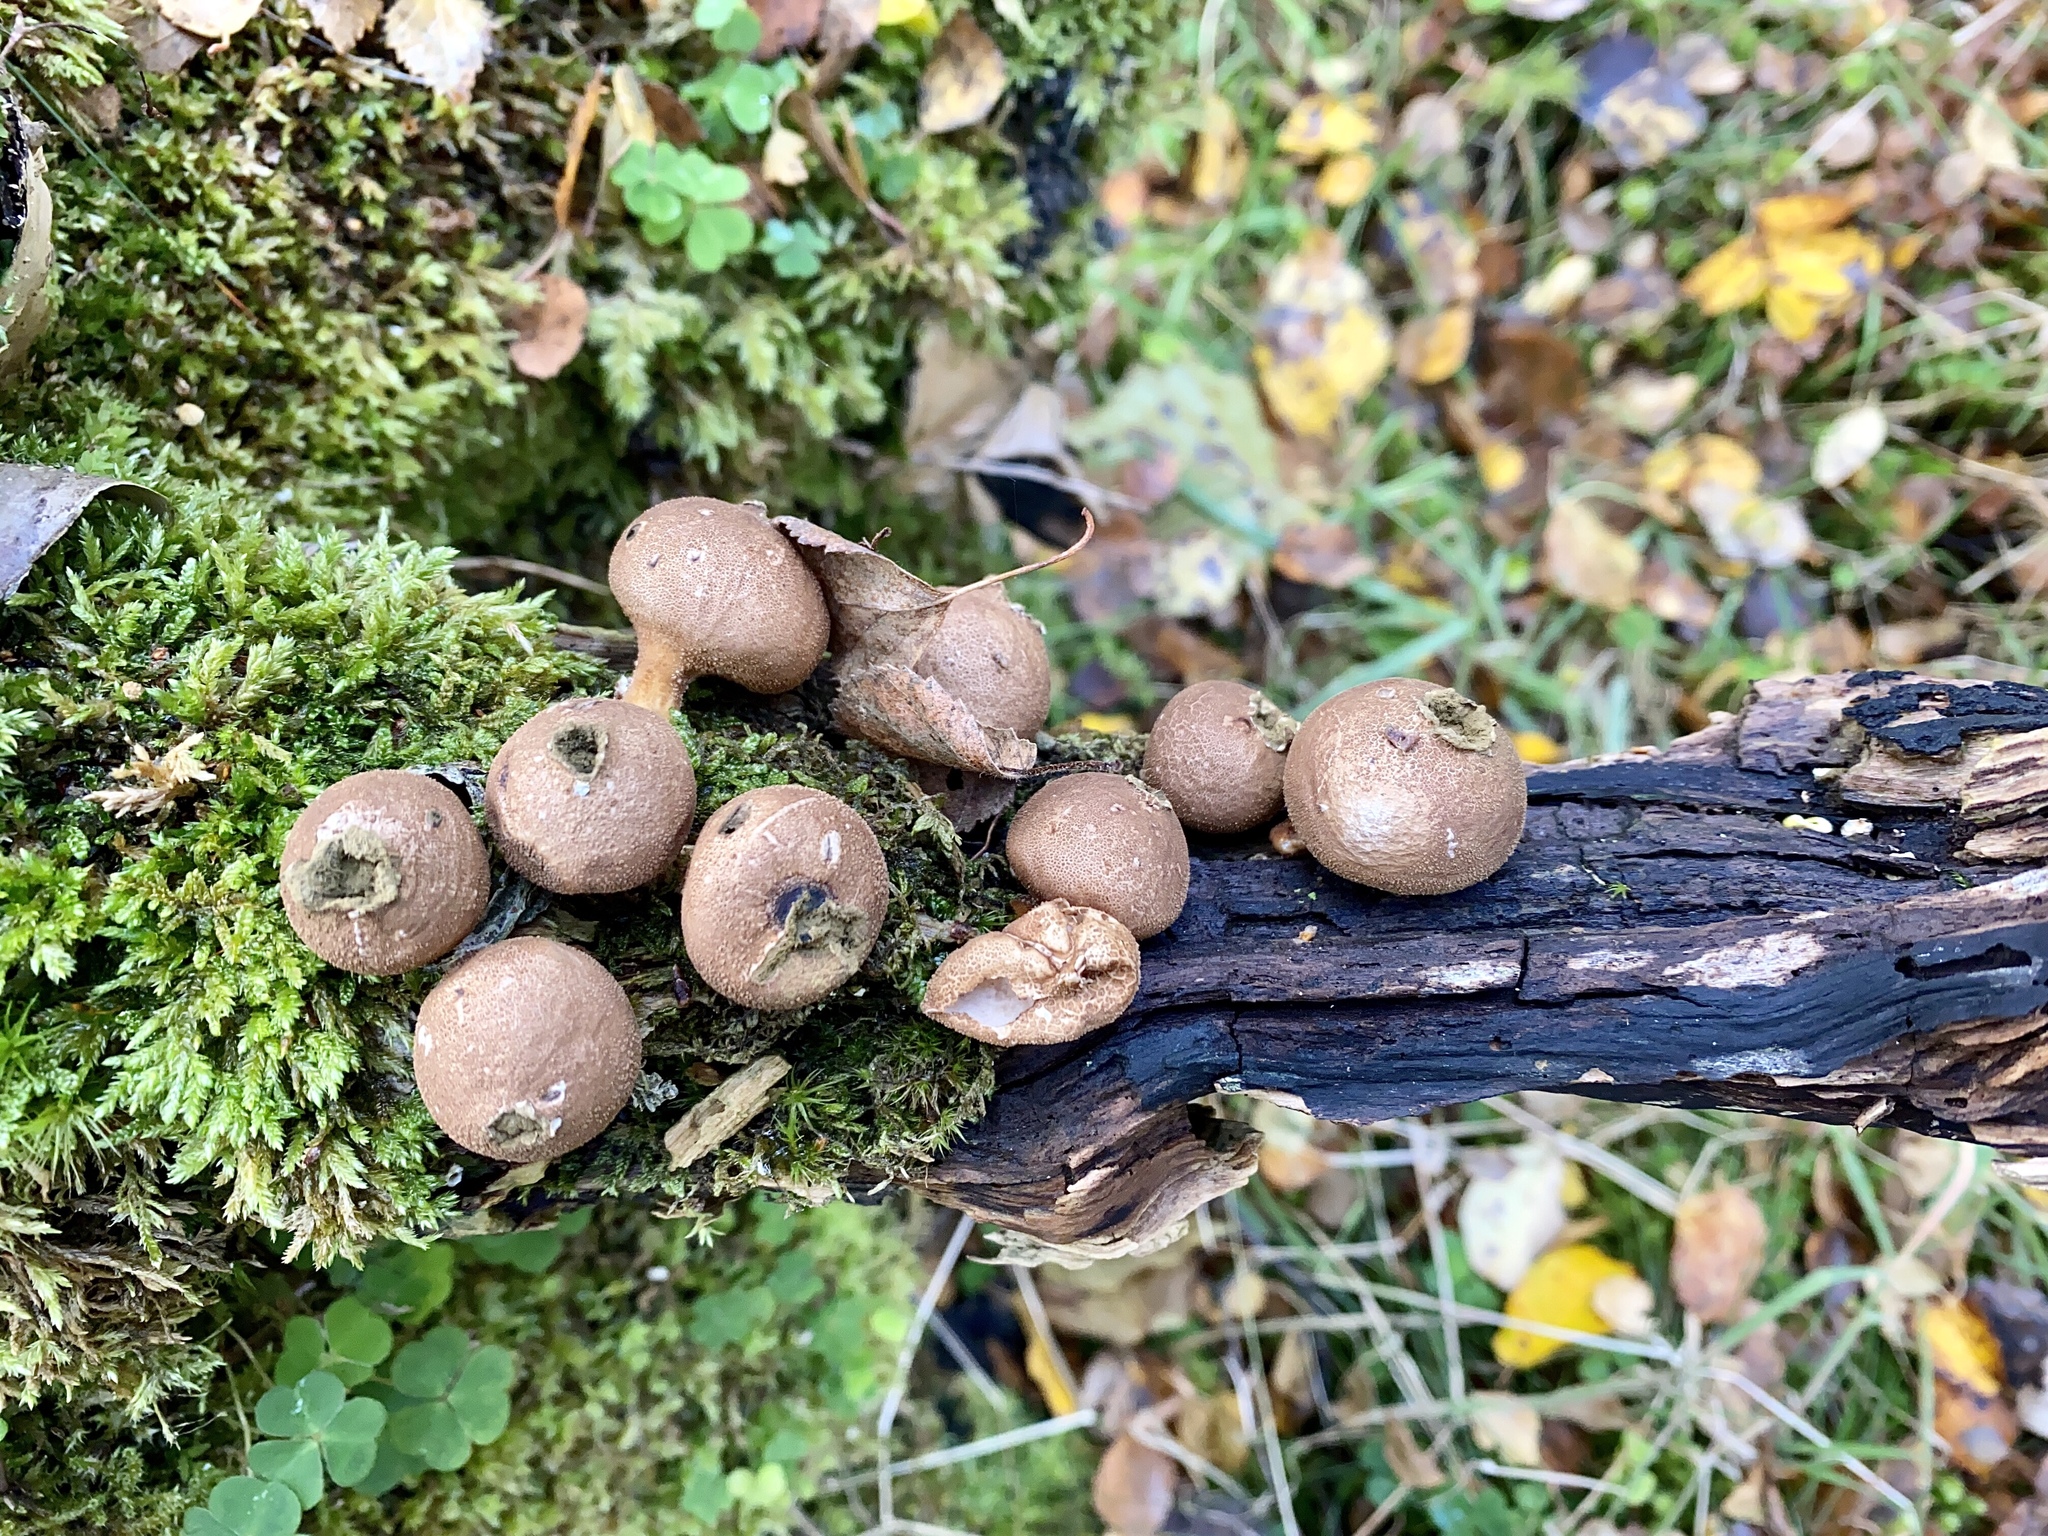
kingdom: Fungi
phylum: Basidiomycota
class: Agaricomycetes
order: Agaricales
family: Lycoperdaceae
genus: Apioperdon
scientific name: Apioperdon pyriforme
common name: Pear-shaped puffball
